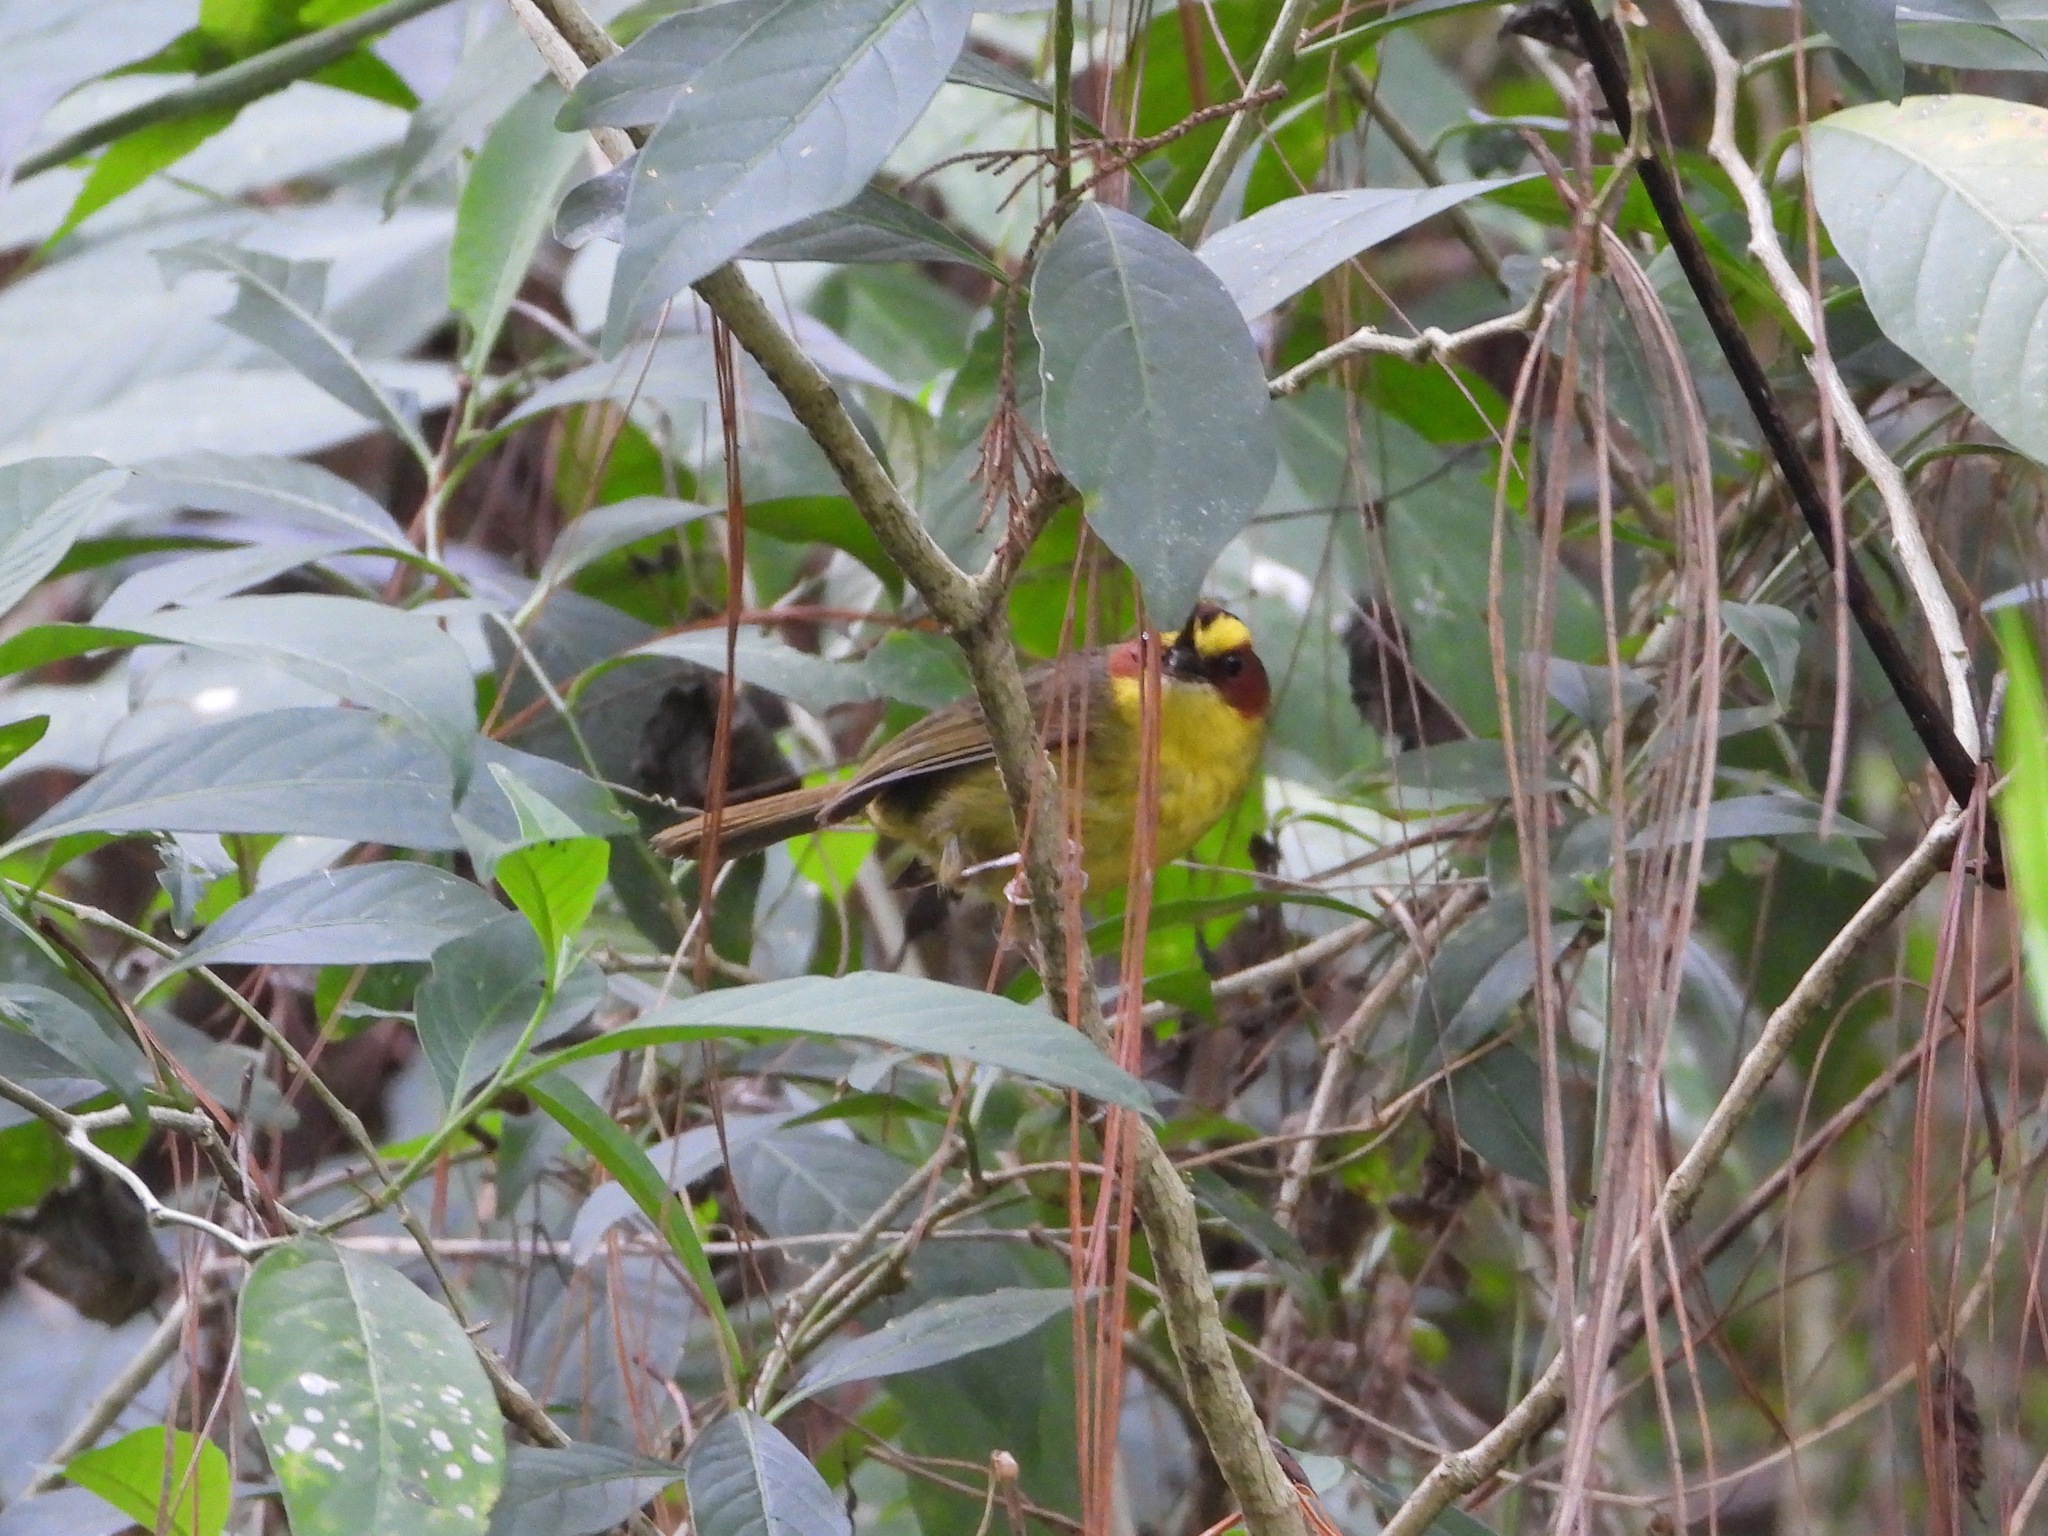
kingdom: Animalia
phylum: Chordata
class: Aves
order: Passeriformes
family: Parulidae
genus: Basileuterus
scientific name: Basileuterus belli
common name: Golden-browed warbler
